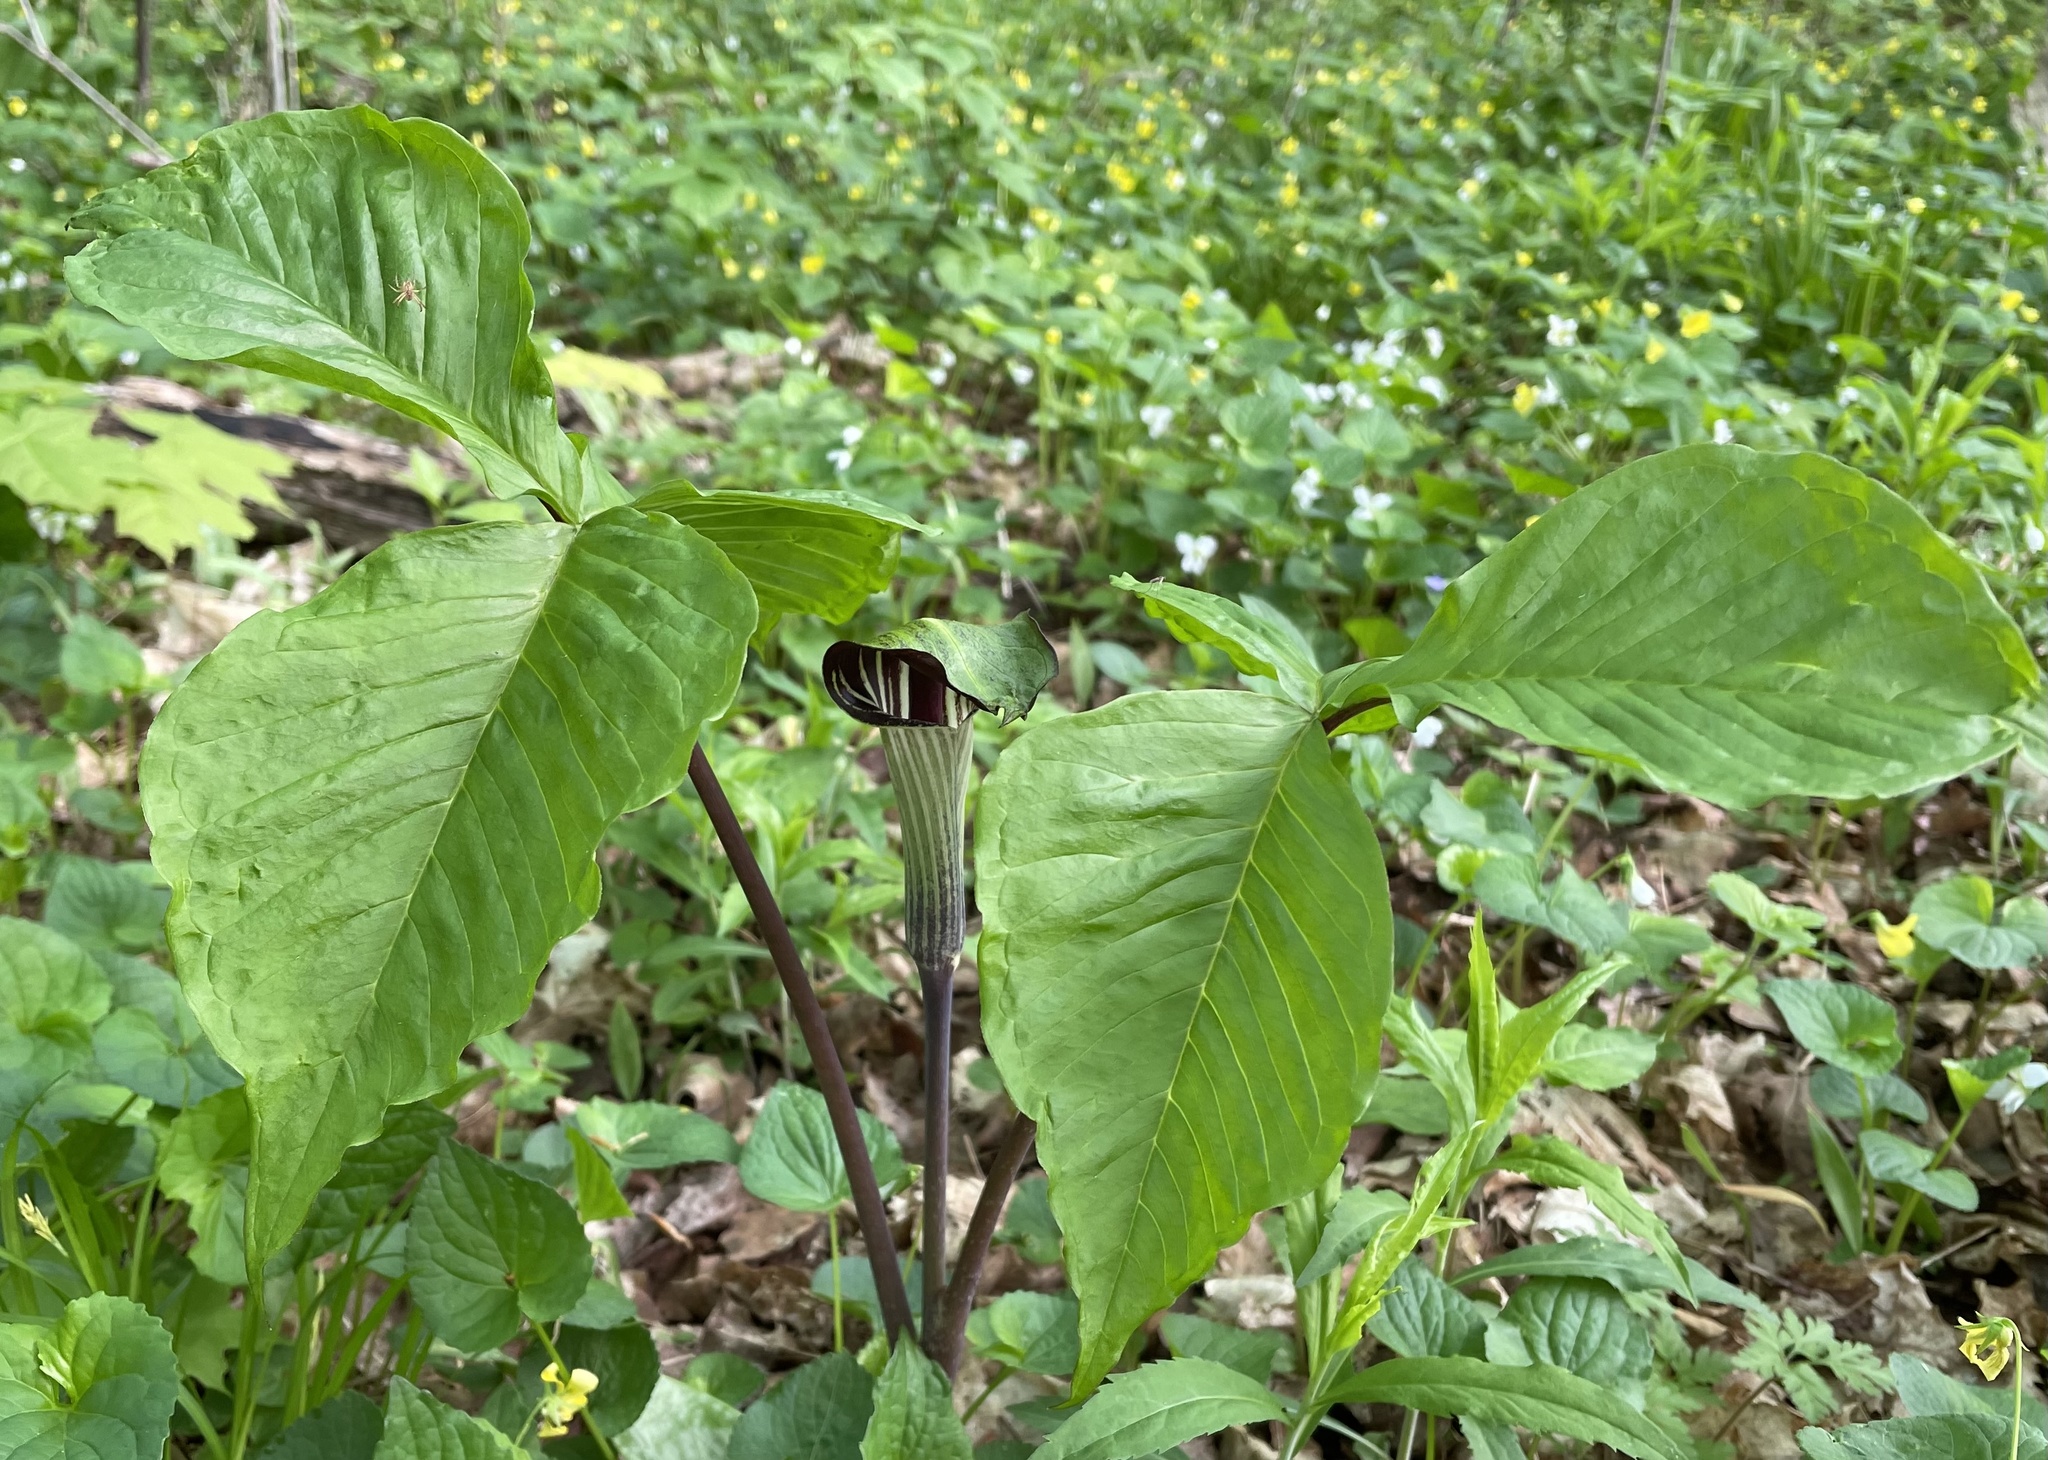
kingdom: Plantae
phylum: Tracheophyta
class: Liliopsida
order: Alismatales
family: Araceae
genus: Arisaema
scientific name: Arisaema triphyllum
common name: Jack-in-the-pulpit
